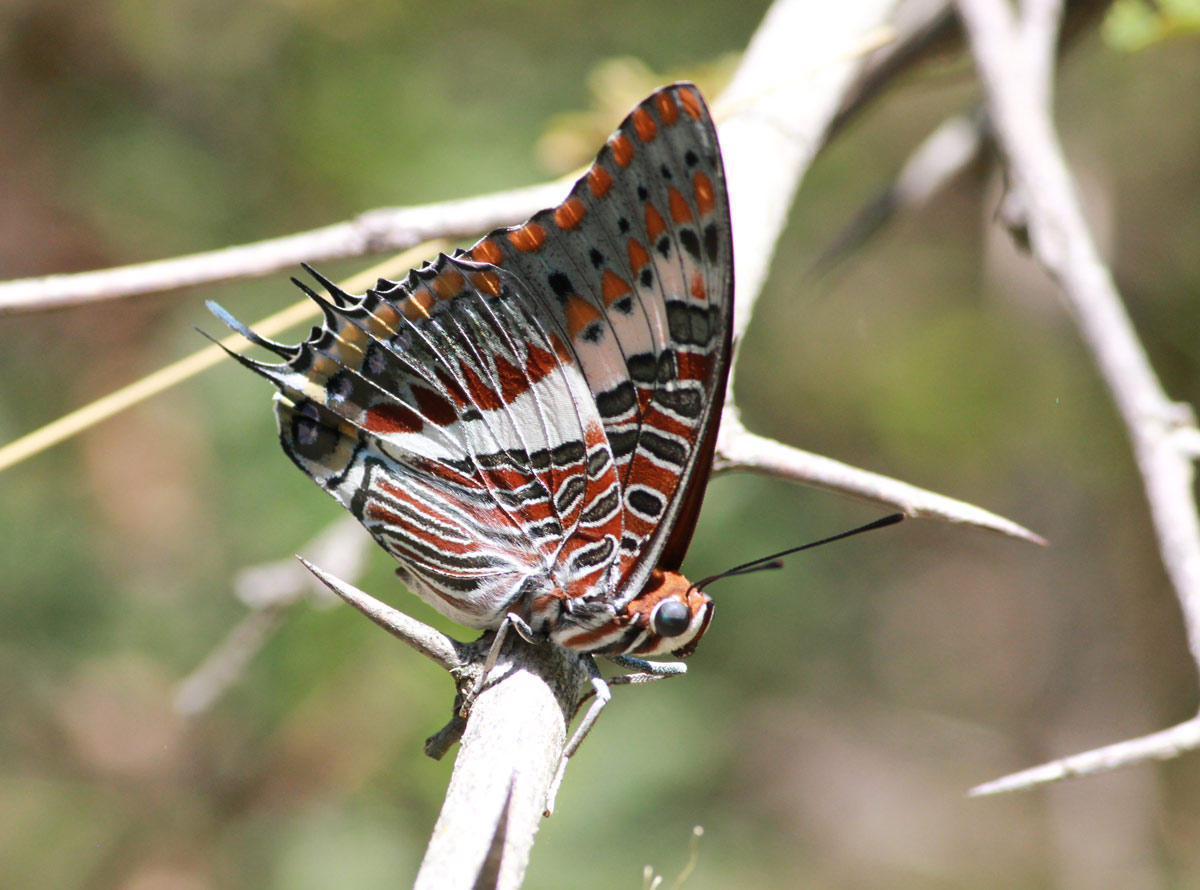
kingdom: Animalia
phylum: Arthropoda
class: Insecta
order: Lepidoptera
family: Nymphalidae
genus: Charaxes
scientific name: Charaxes jasius
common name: Two tailed pasha
